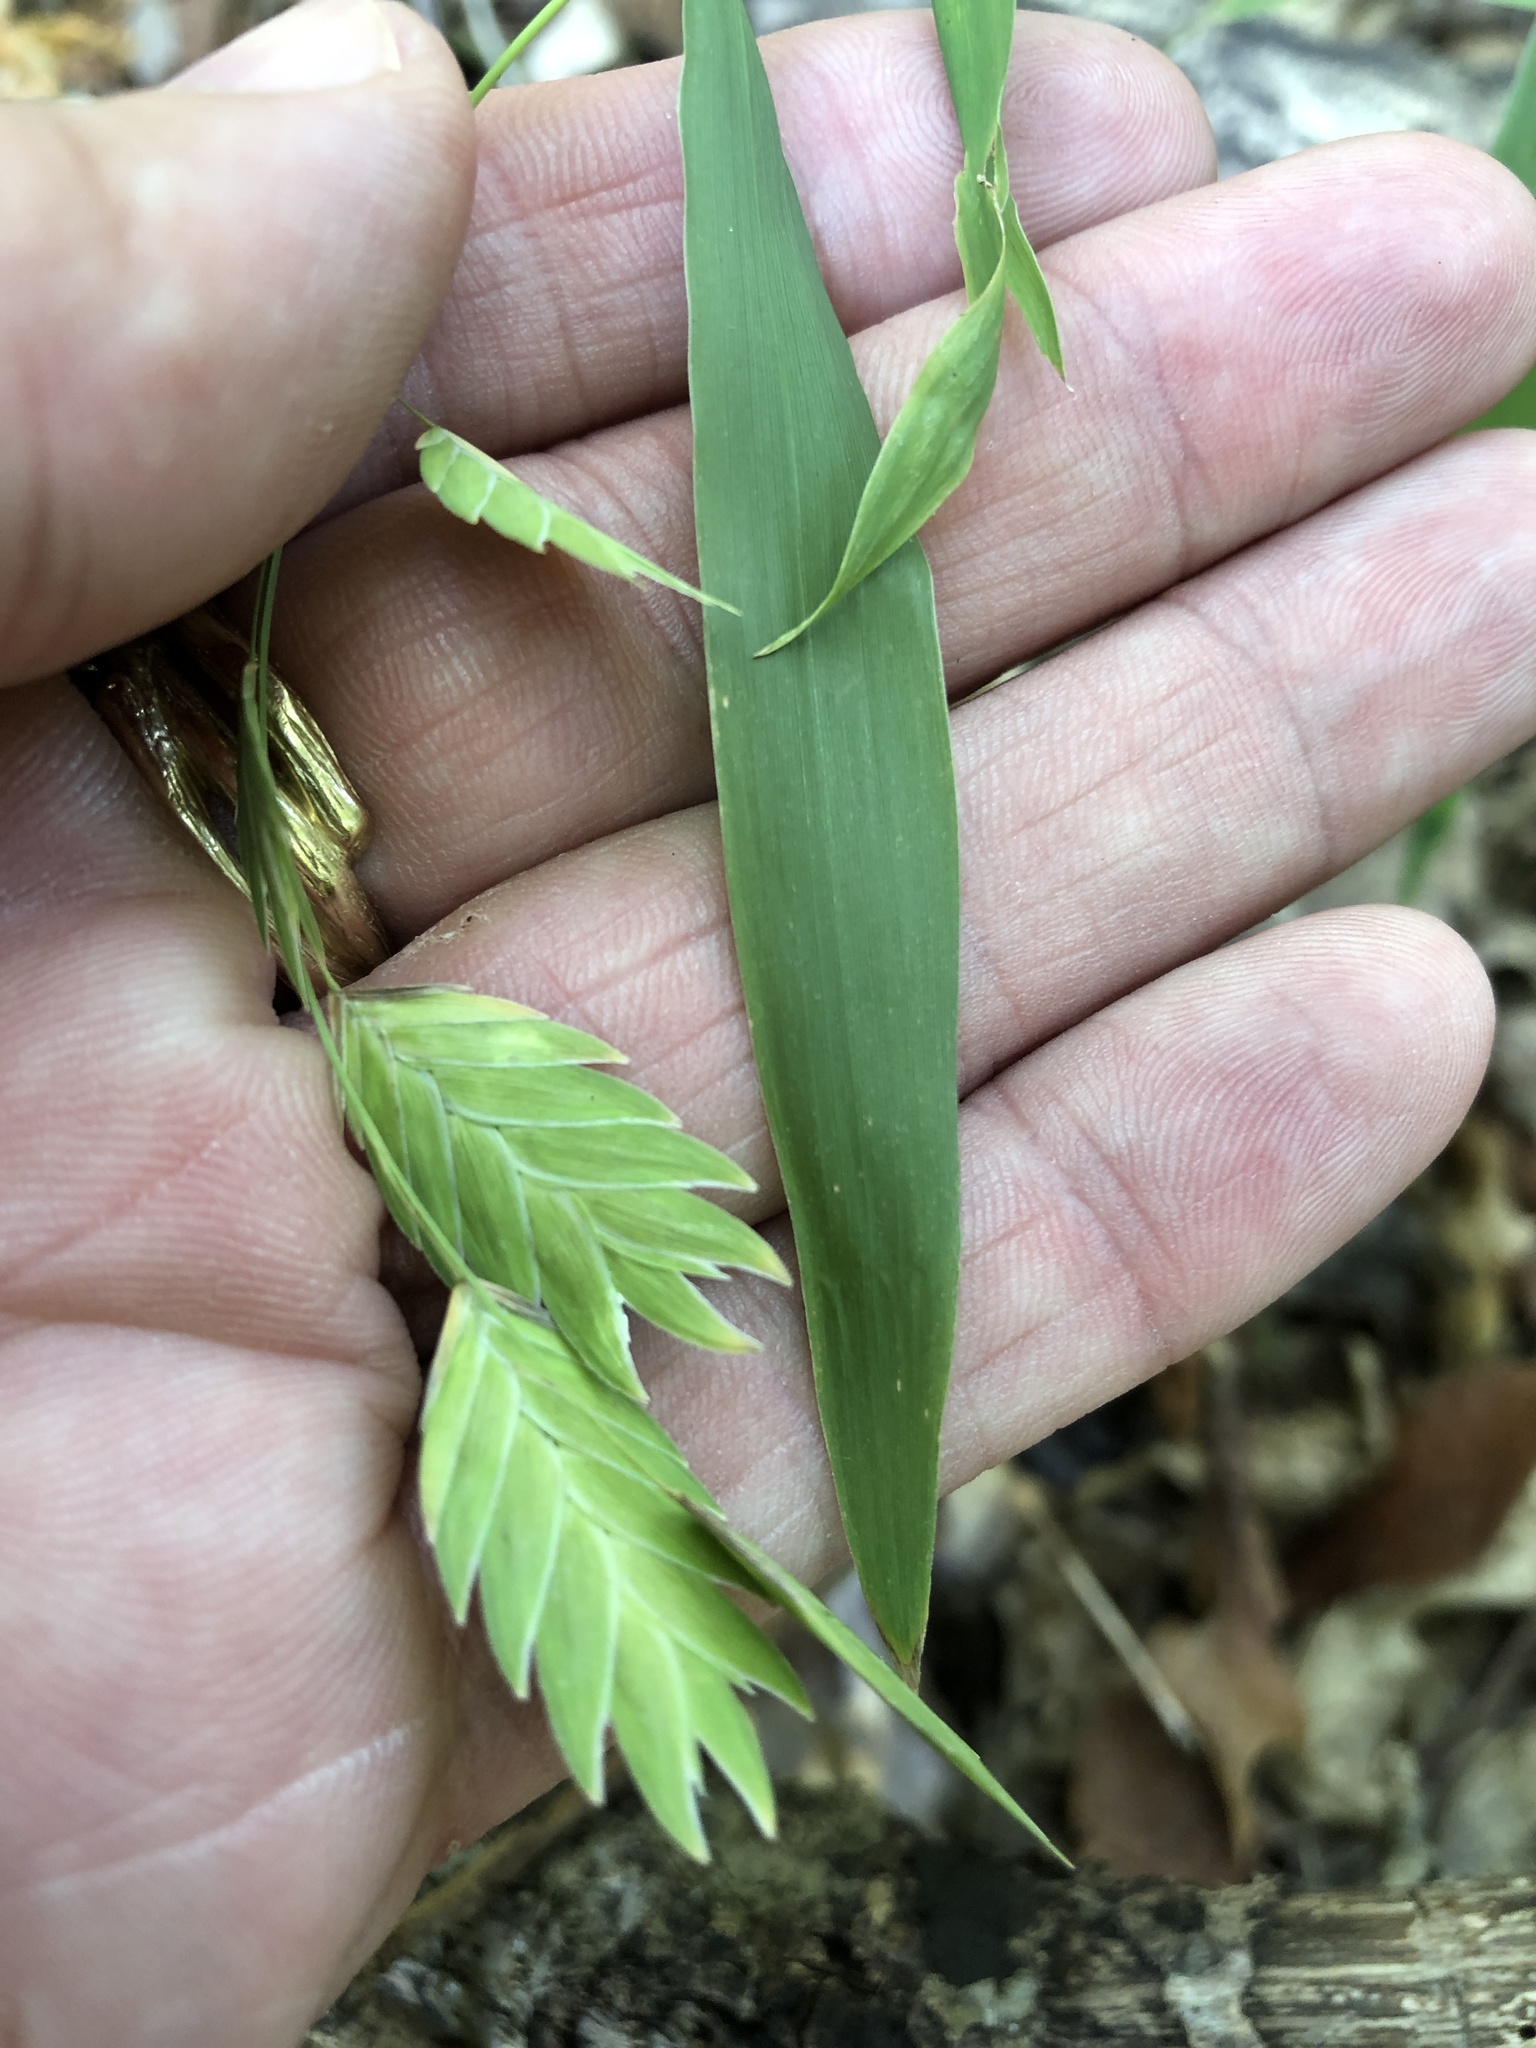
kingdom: Plantae
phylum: Tracheophyta
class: Liliopsida
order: Poales
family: Poaceae
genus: Chasmanthium
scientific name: Chasmanthium latifolium
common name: Broad-leaved chasmanthium
